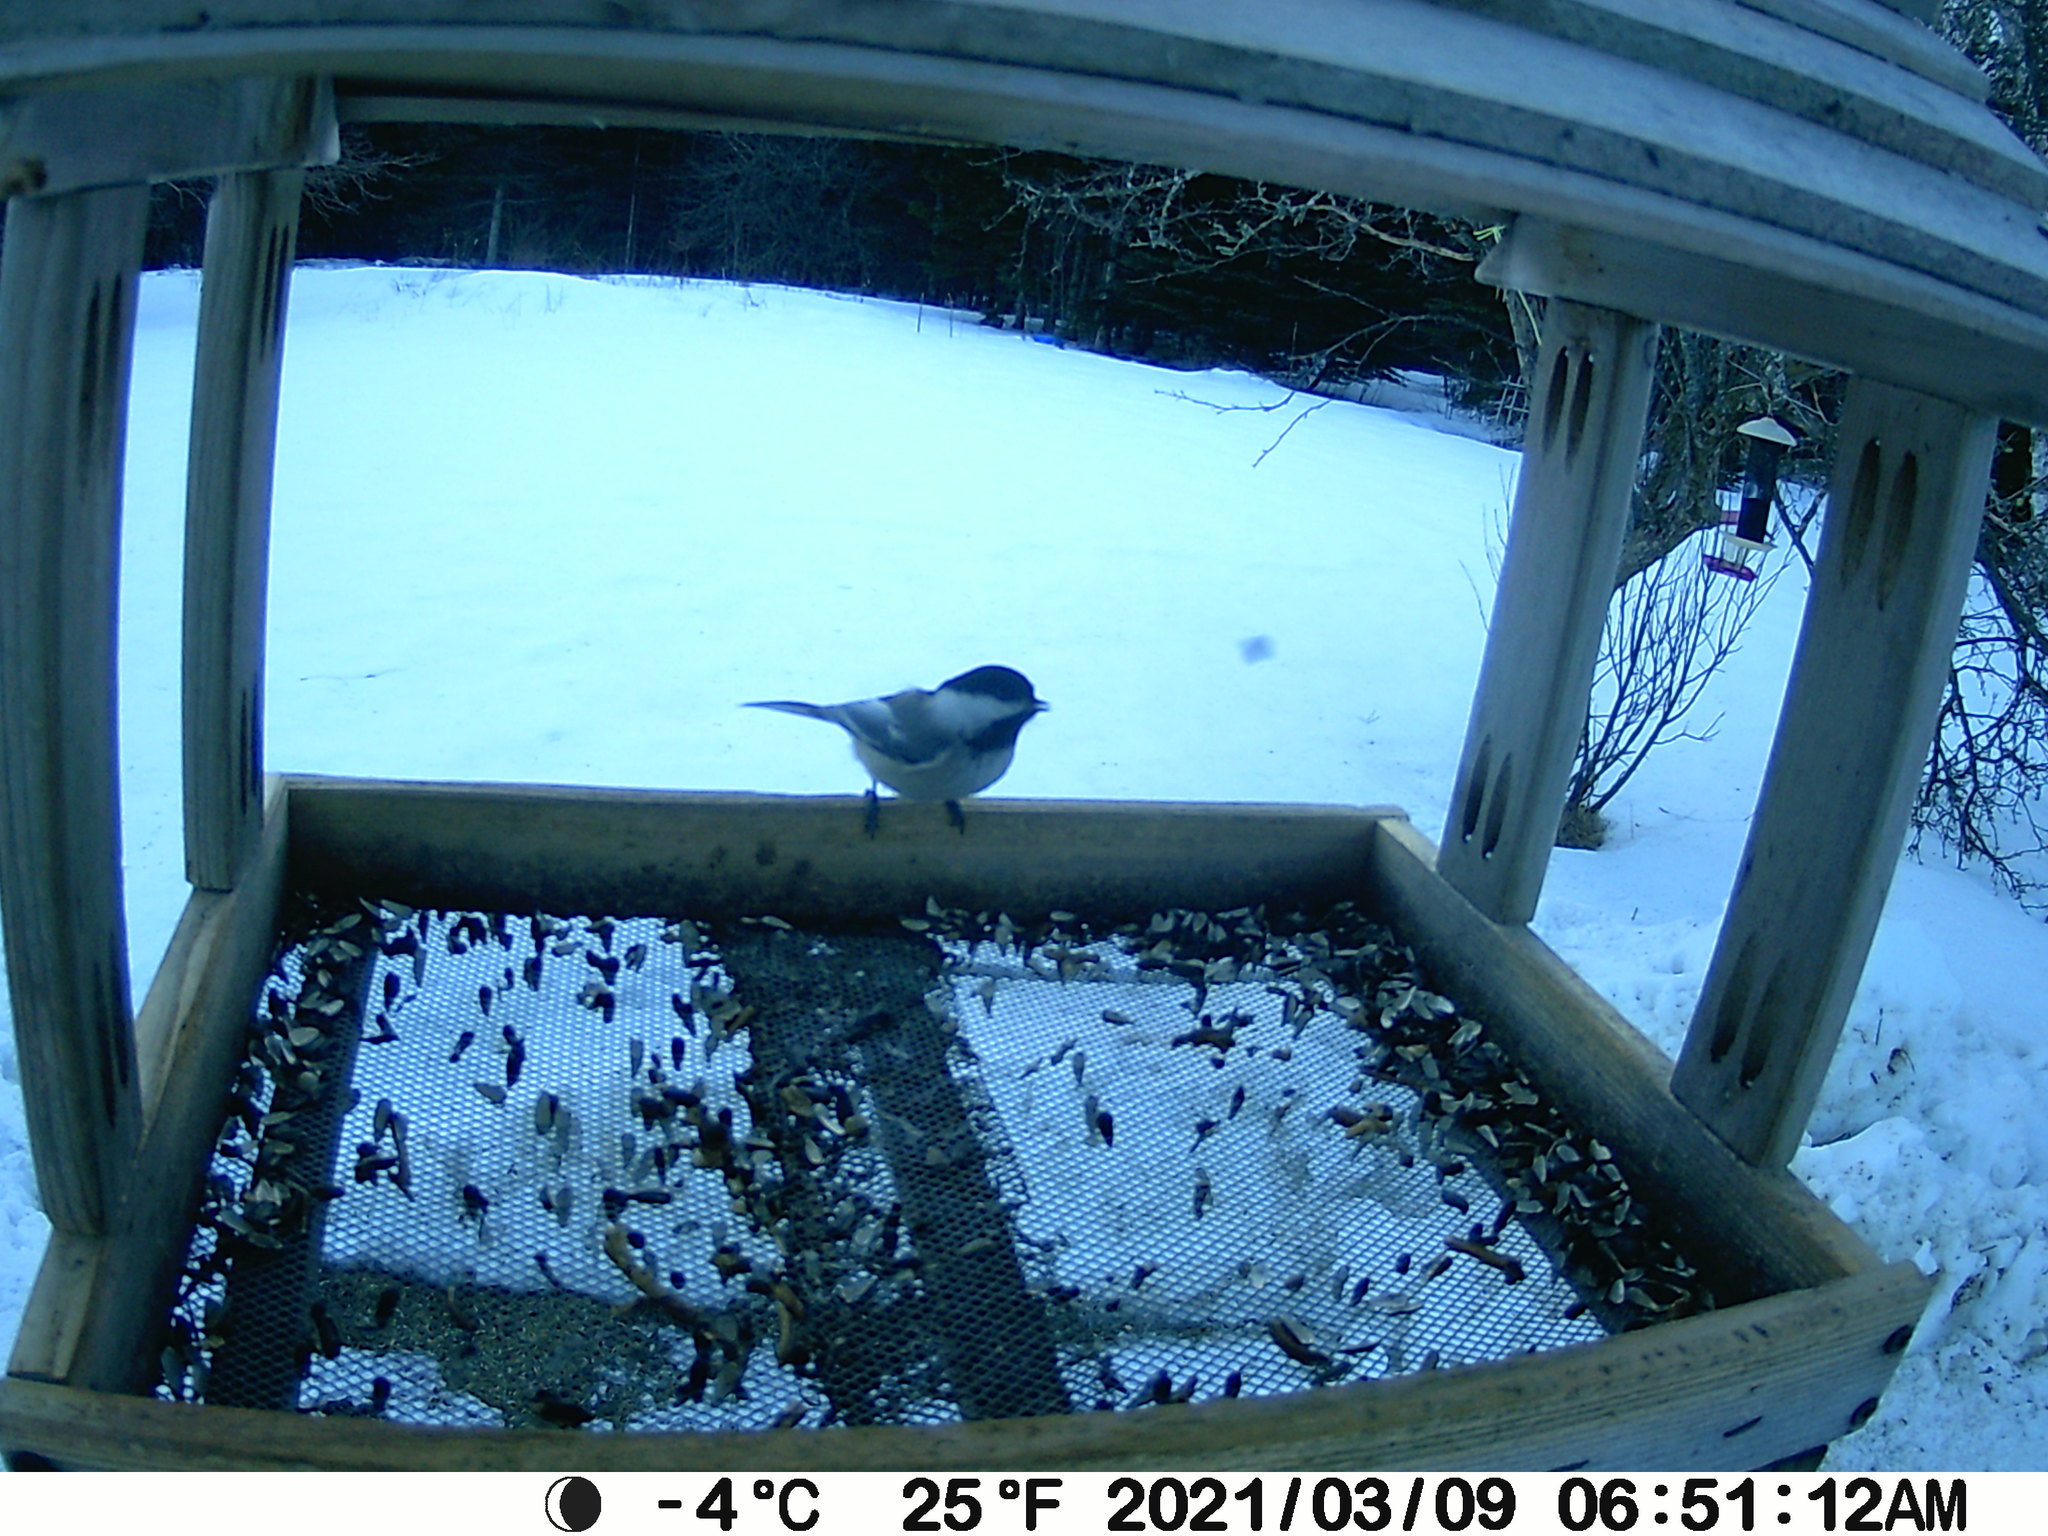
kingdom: Animalia
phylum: Chordata
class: Aves
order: Passeriformes
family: Paridae
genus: Poecile
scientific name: Poecile atricapillus
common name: Black-capped chickadee
